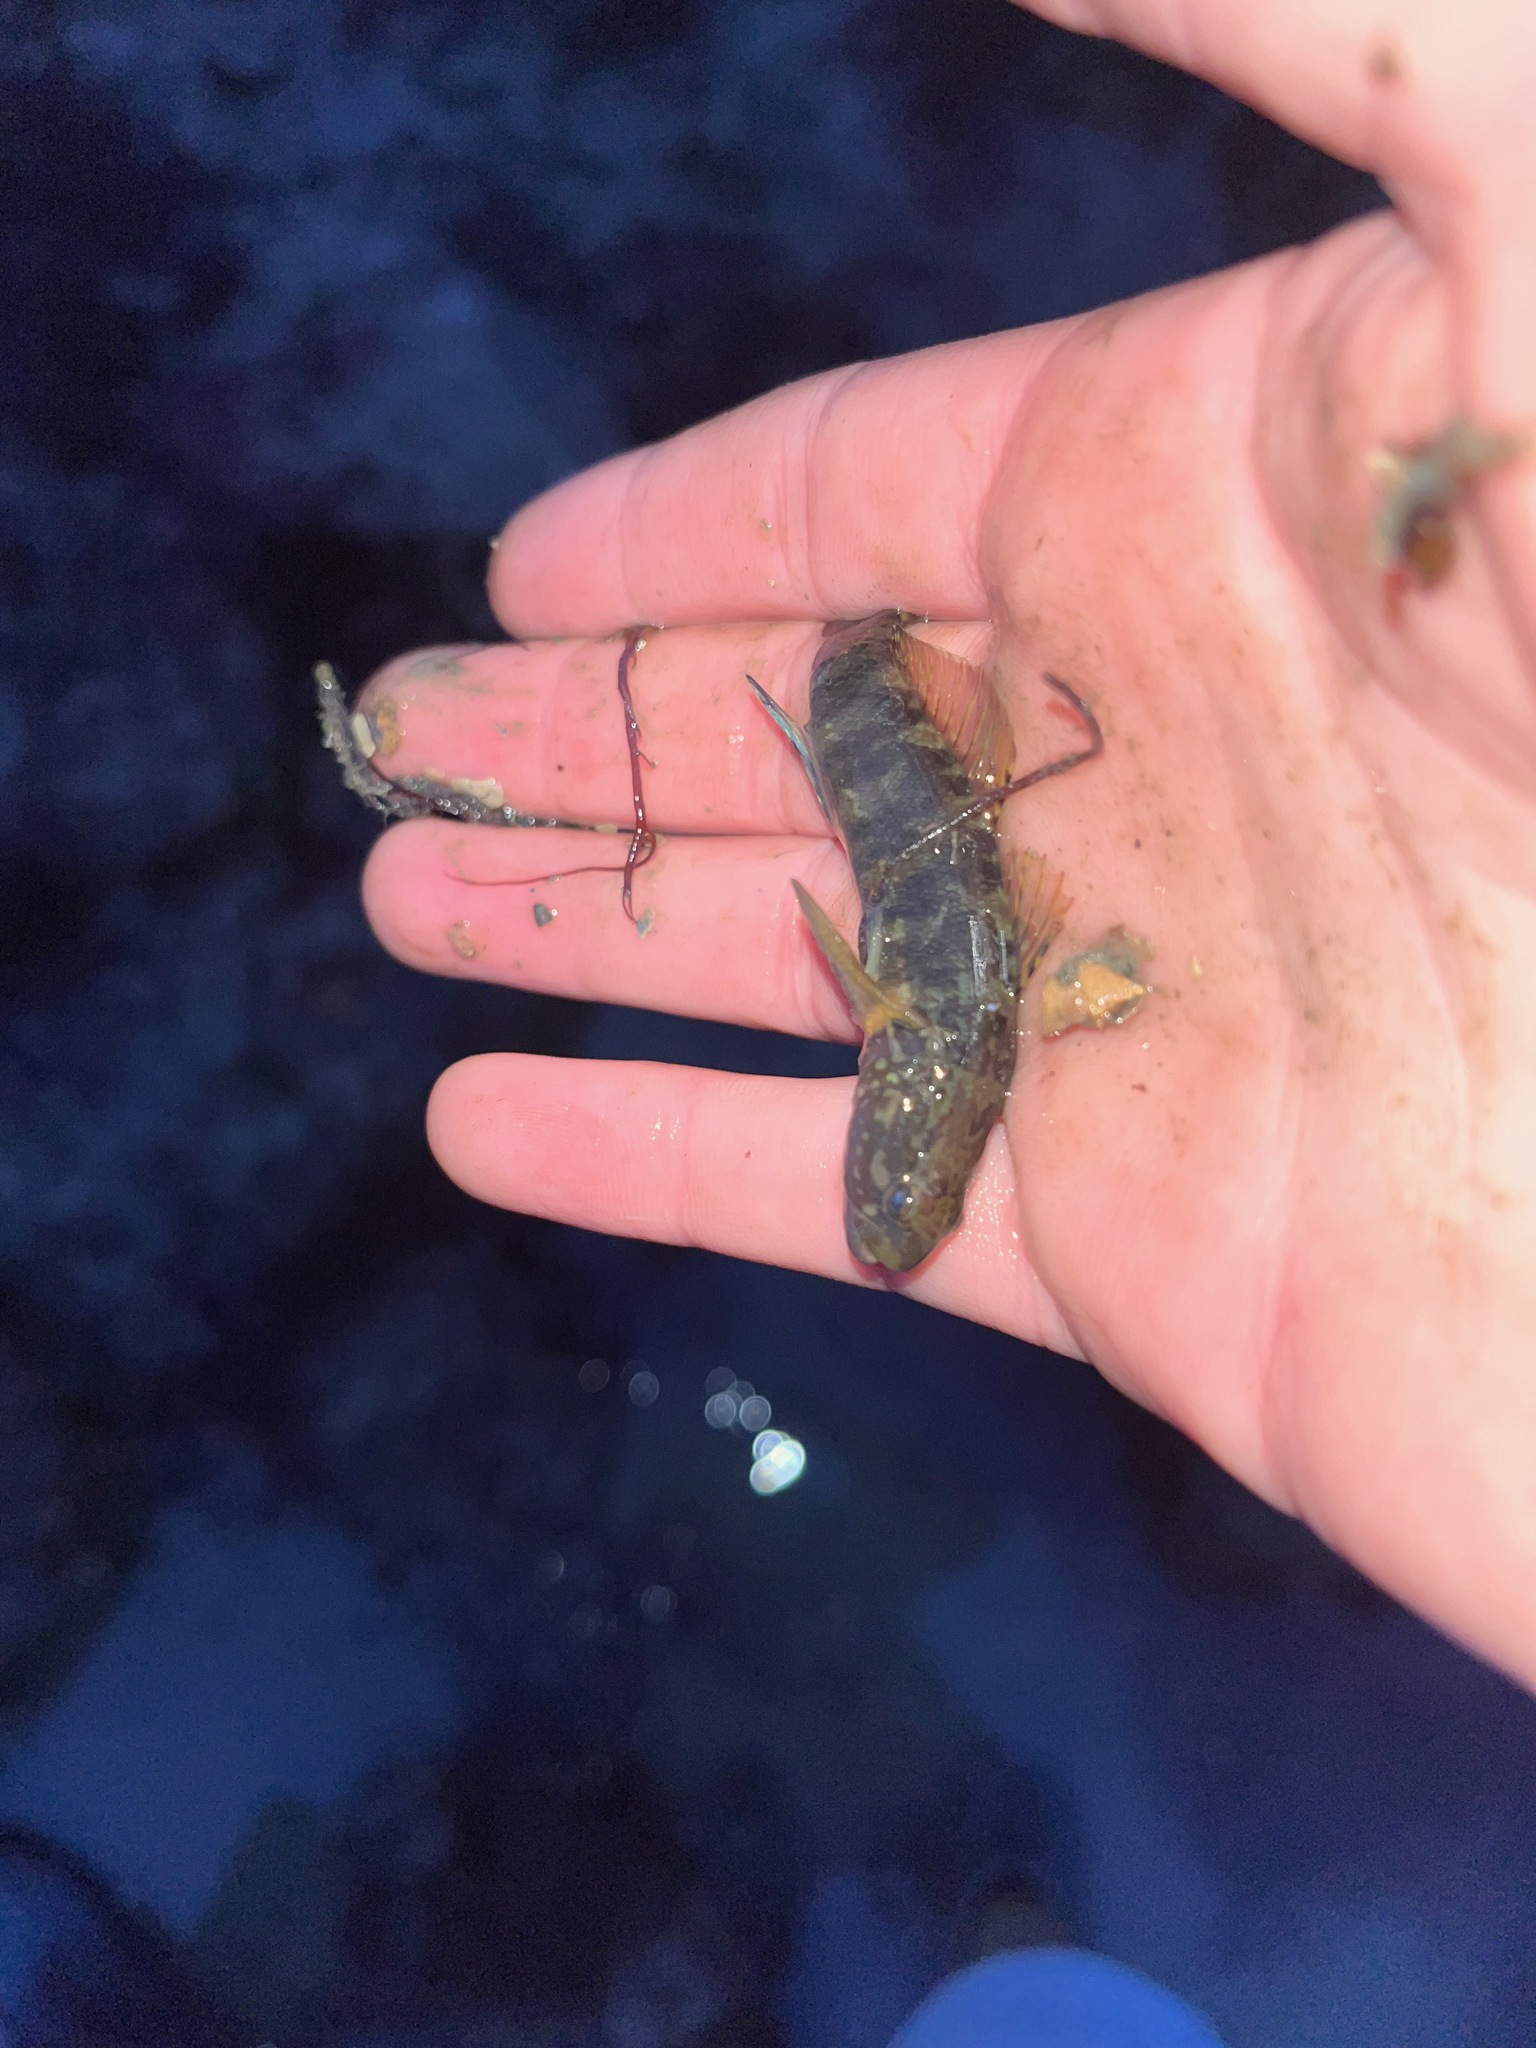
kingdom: Animalia
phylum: Chordata
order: Perciformes
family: Gobiidae
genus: Tridentiger
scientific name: Tridentiger trigonocephalus
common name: Chameleon goby
